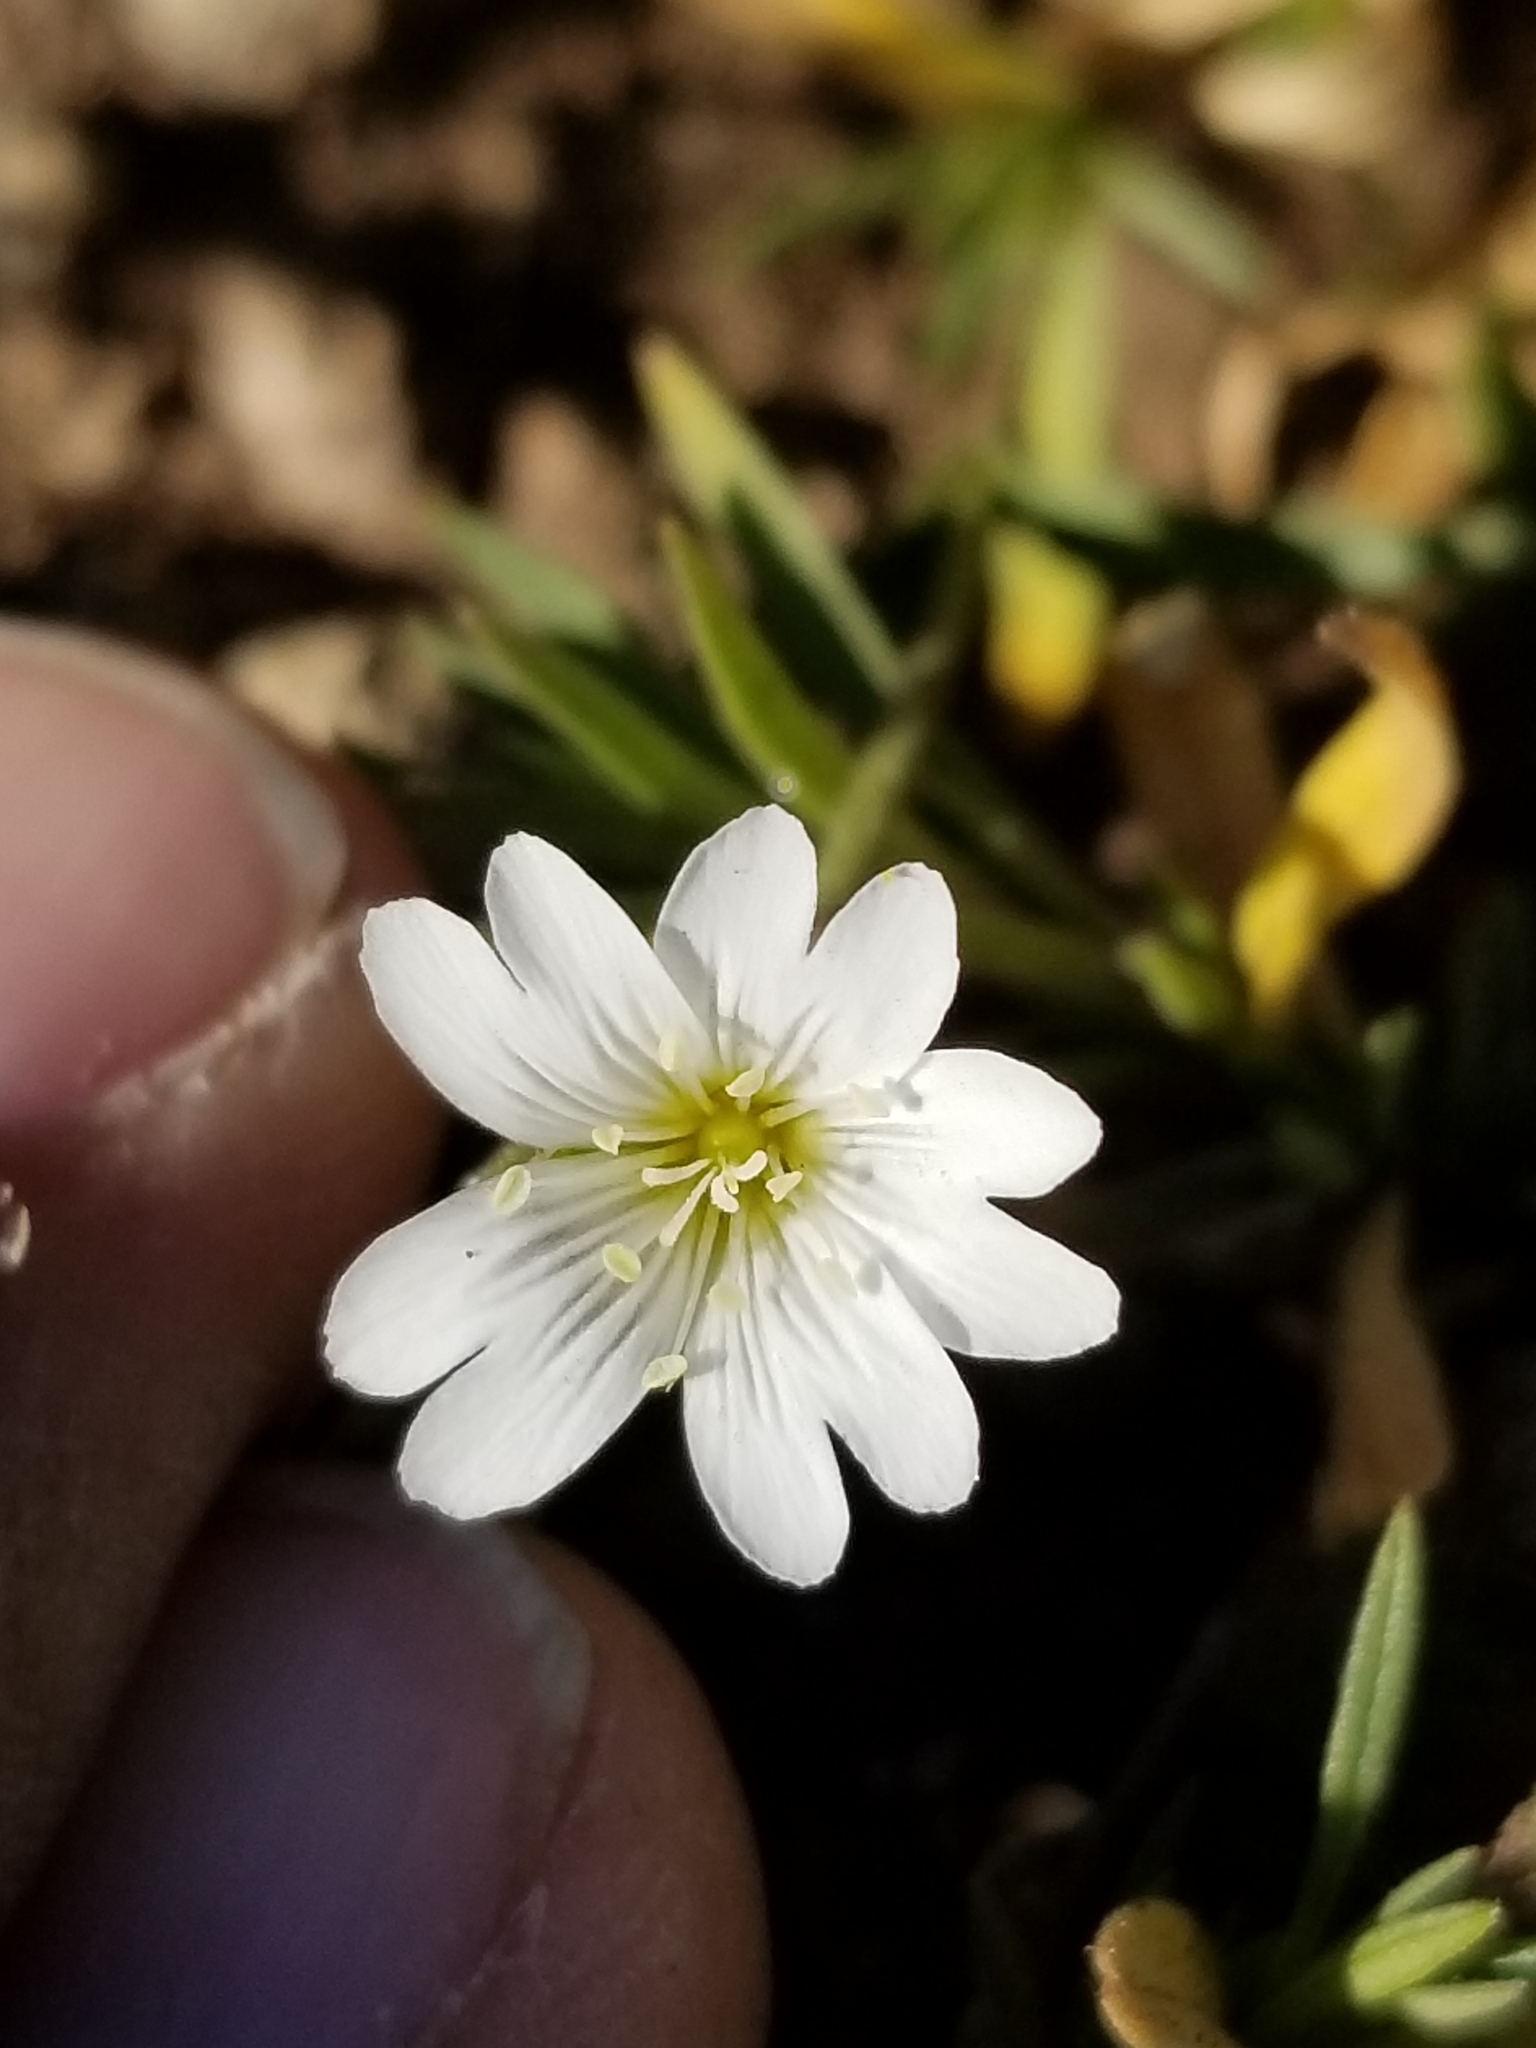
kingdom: Plantae
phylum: Tracheophyta
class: Magnoliopsida
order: Caryophyllales
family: Caryophyllaceae
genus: Cerastium
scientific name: Cerastium arvense
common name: Field mouse-ear
